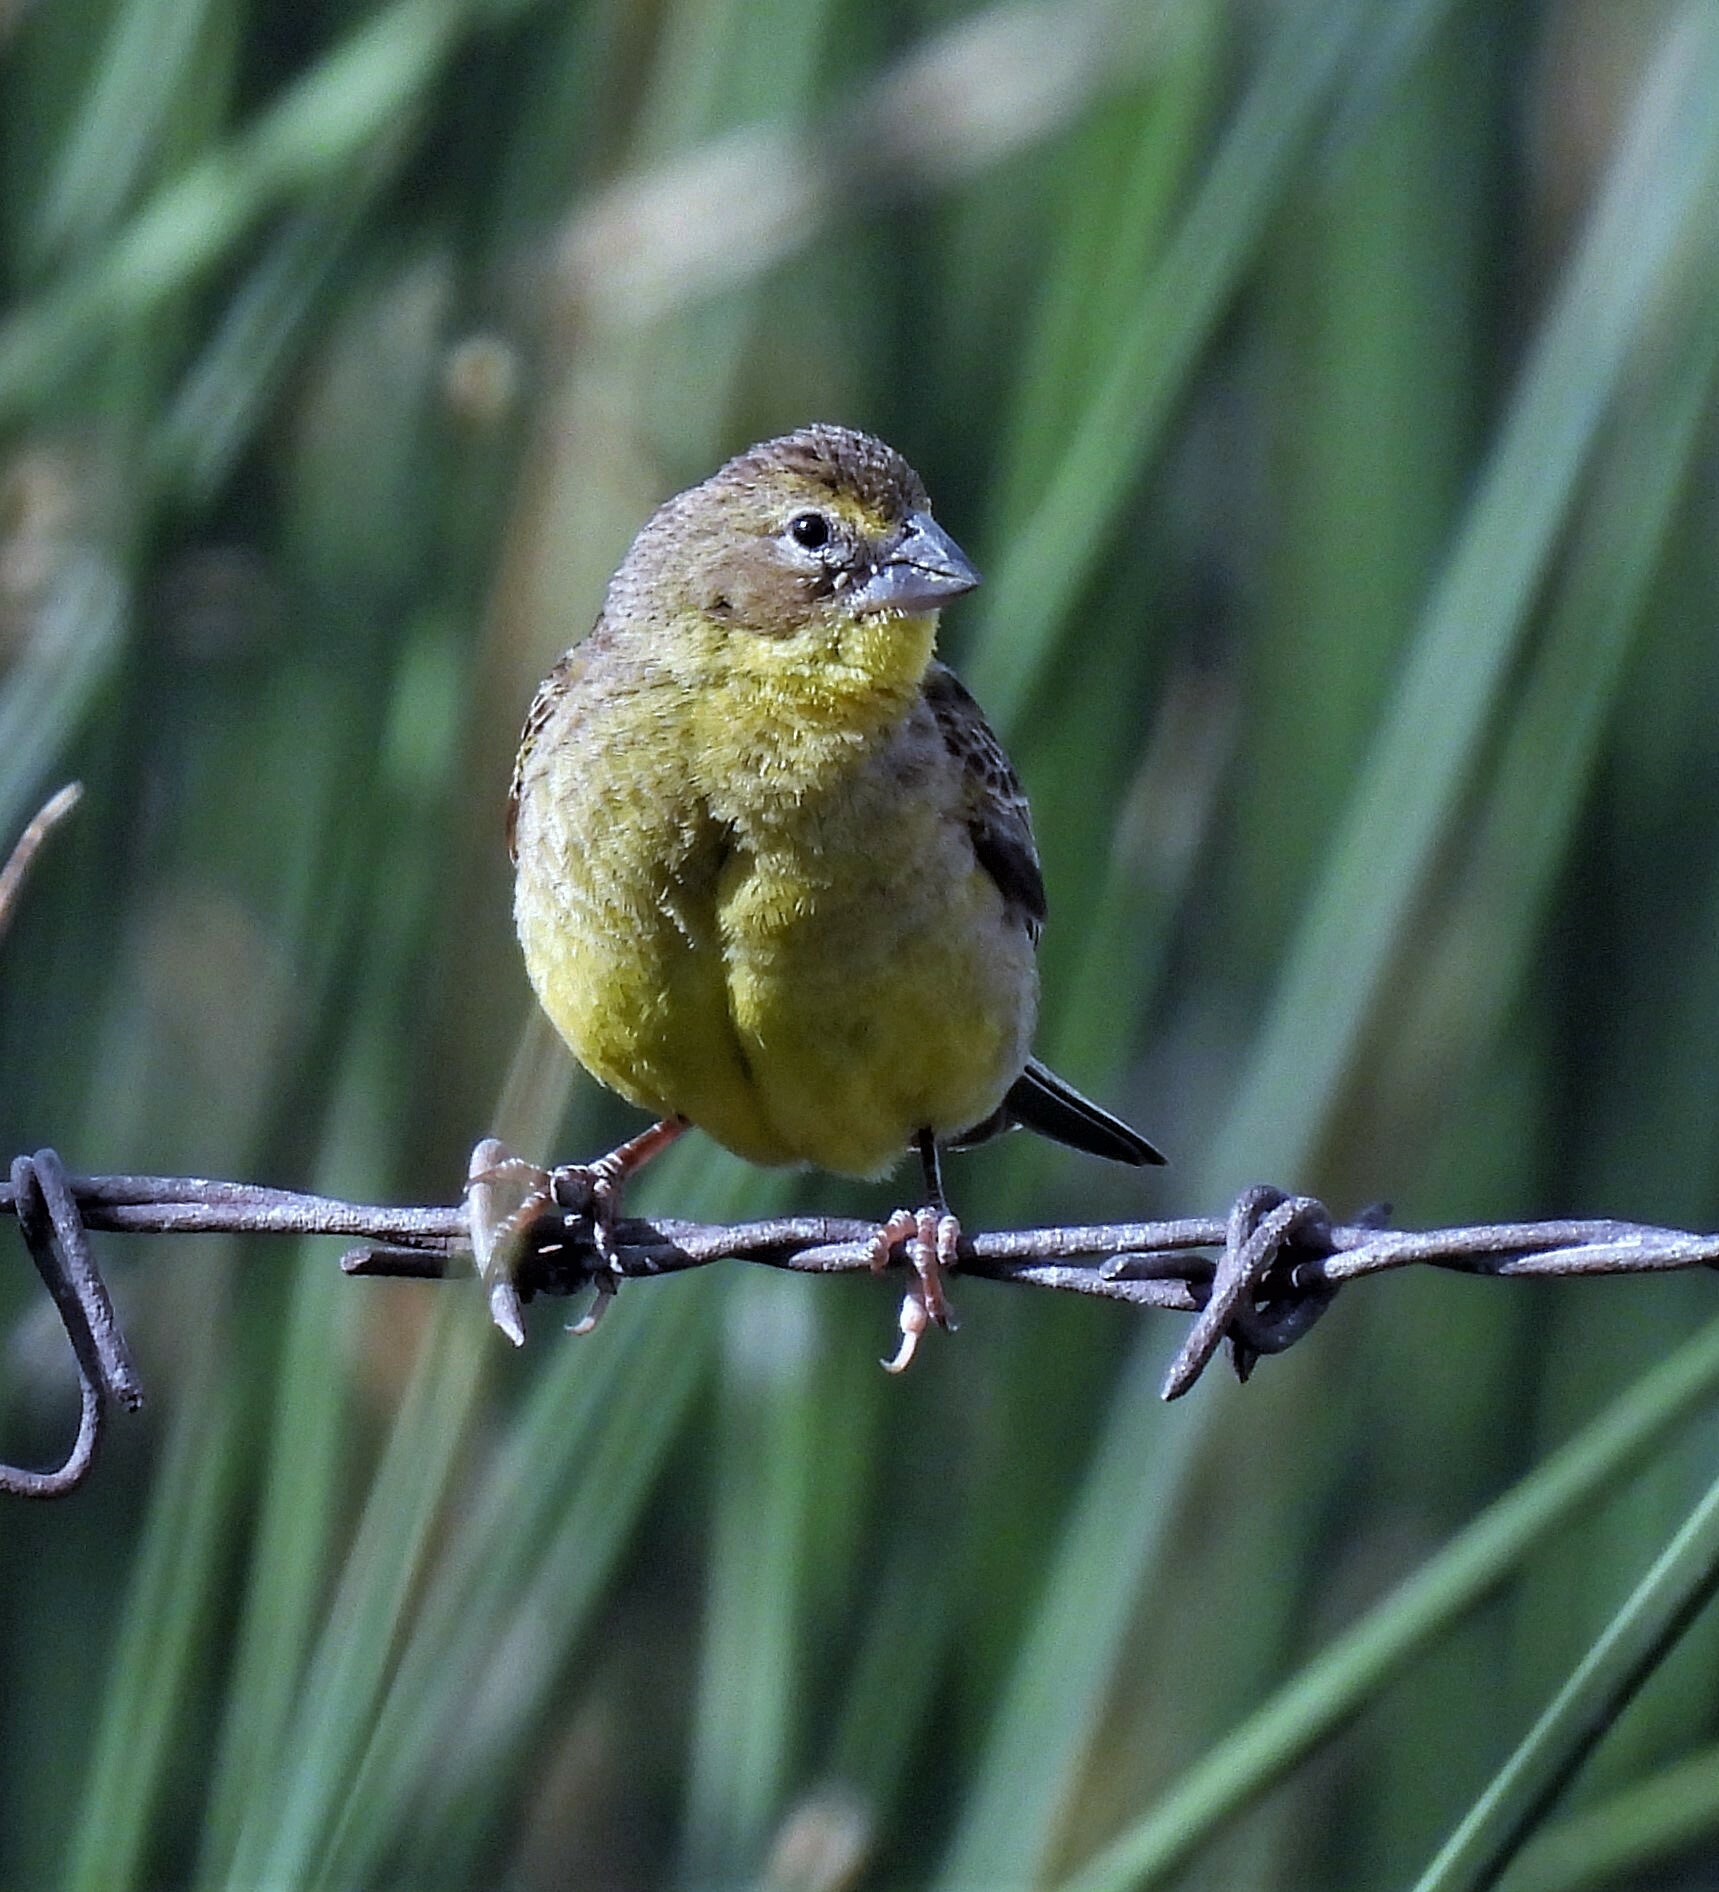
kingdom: Animalia
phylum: Chordata
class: Aves
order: Passeriformes
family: Thraupidae
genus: Sicalis
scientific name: Sicalis luteola
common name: Grassland yellow-finch
